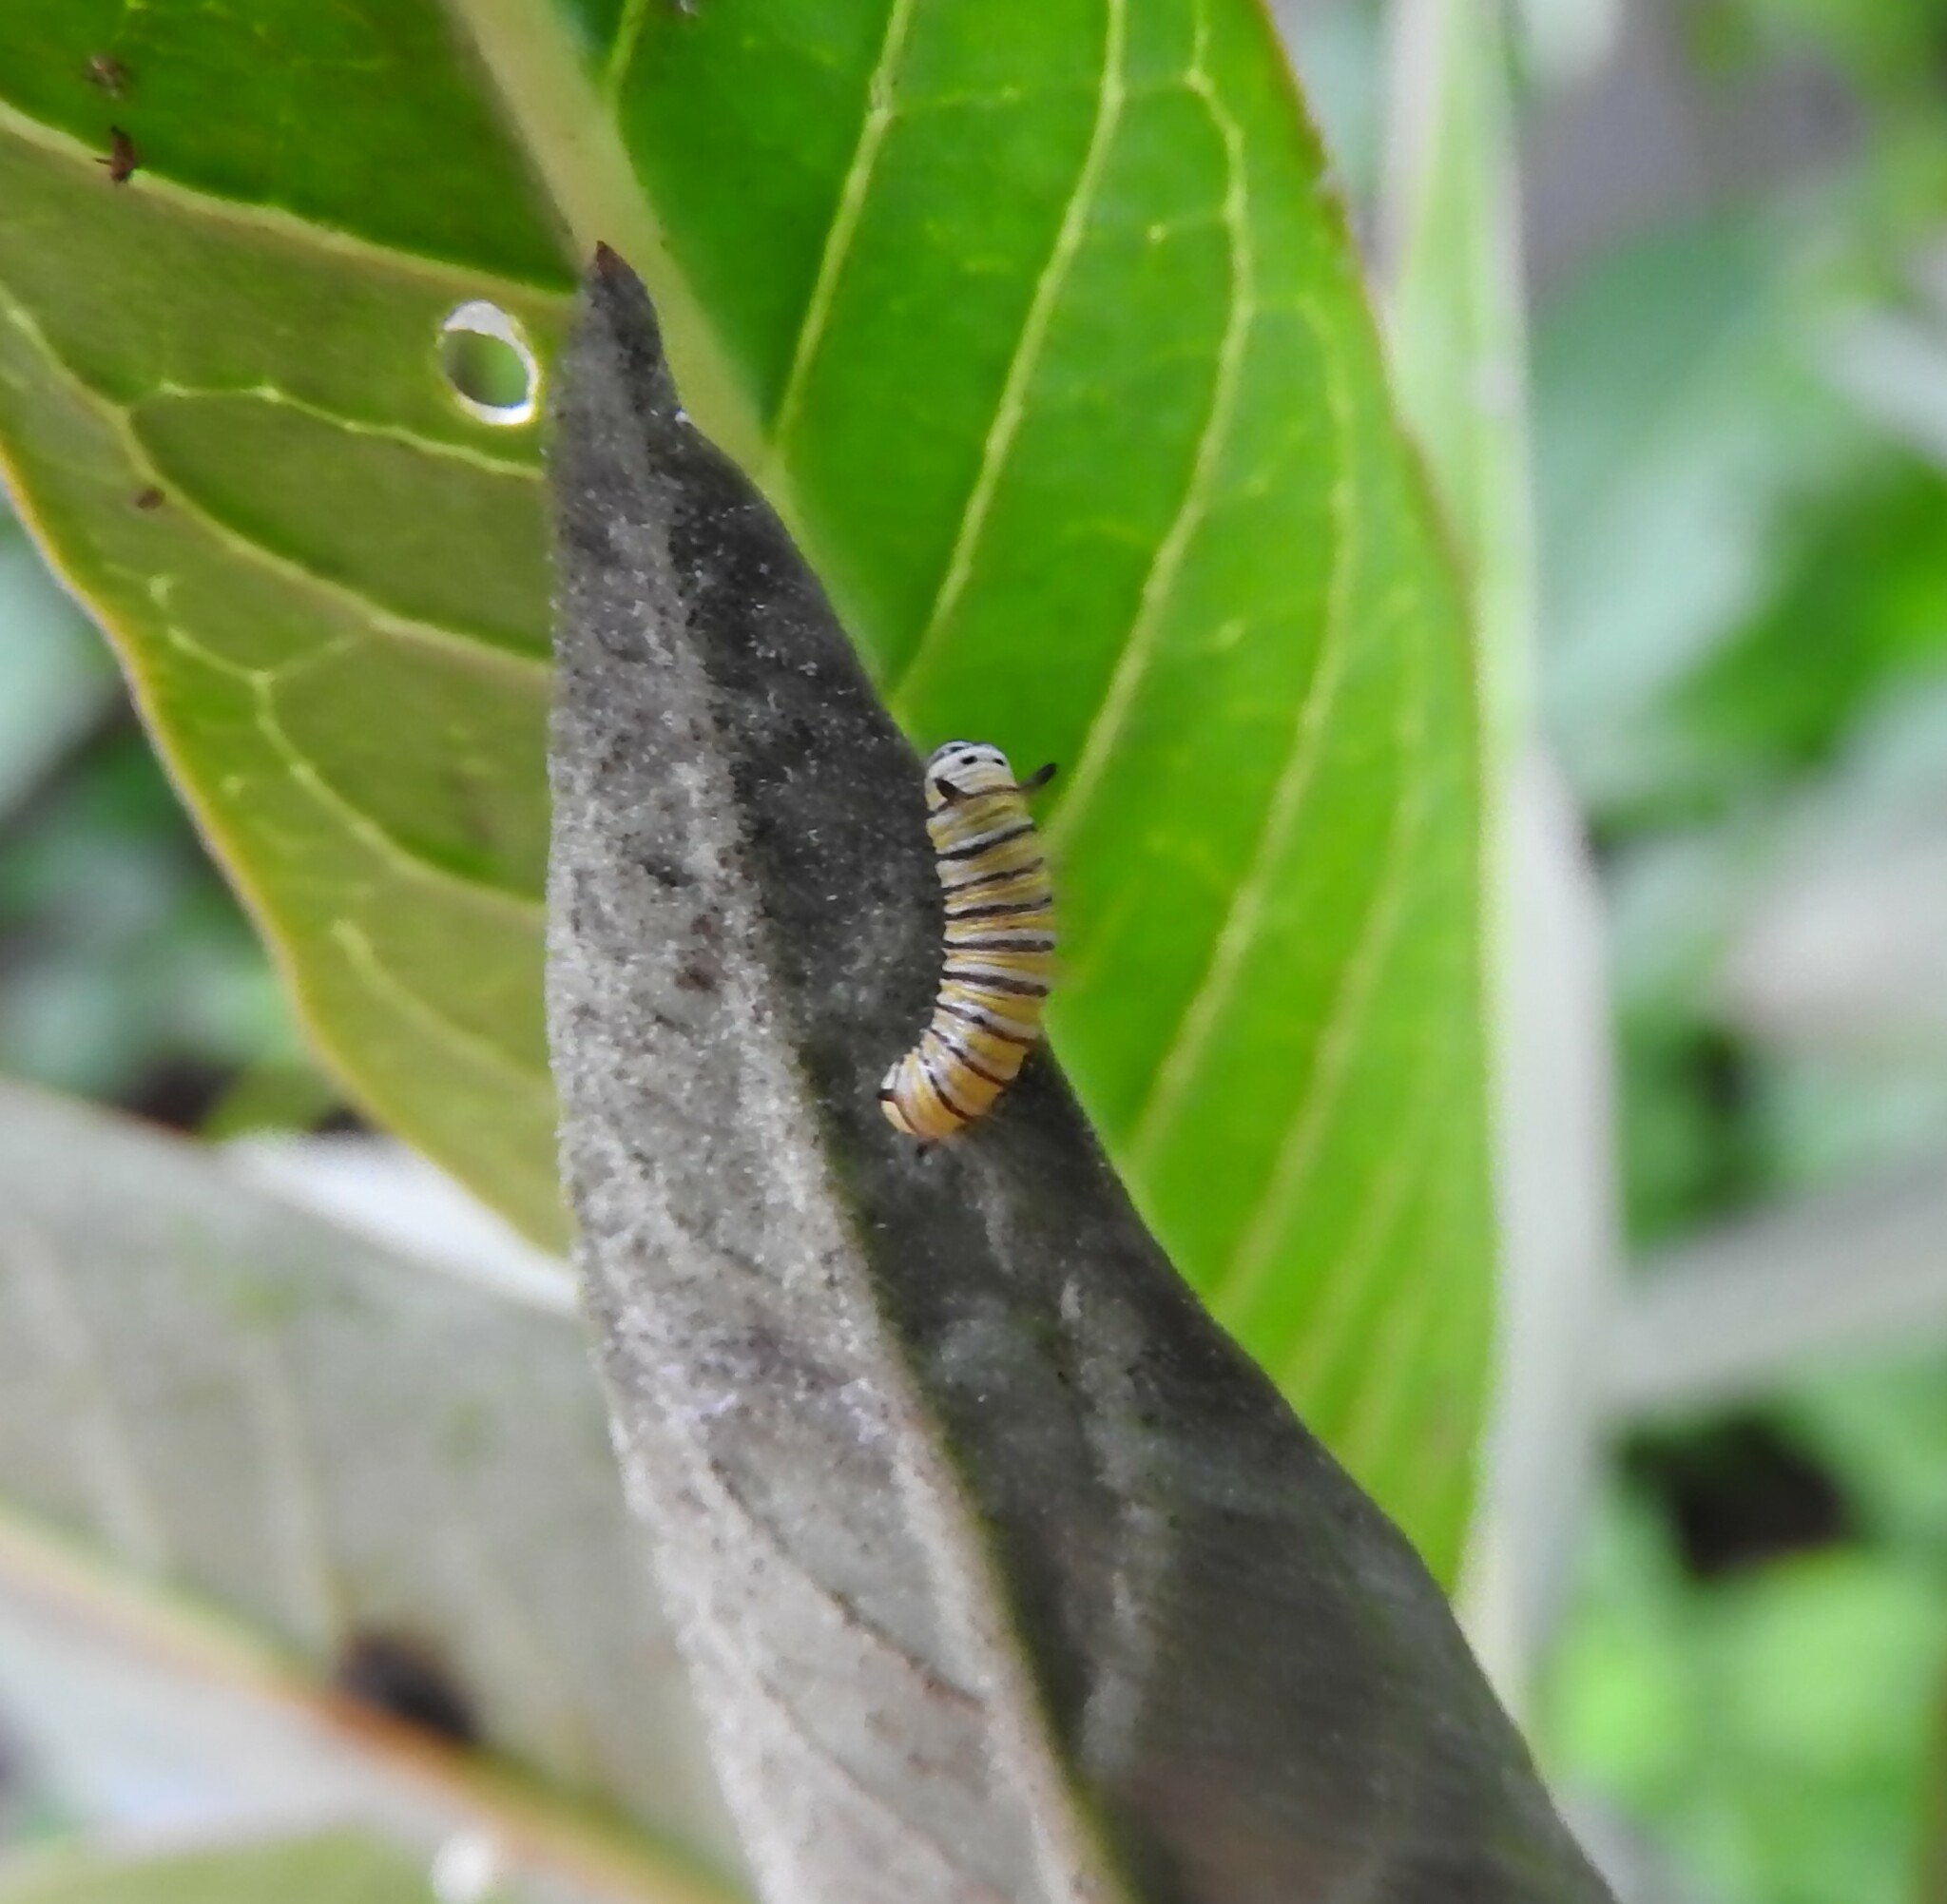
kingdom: Animalia
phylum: Arthropoda
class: Insecta
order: Lepidoptera
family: Nymphalidae
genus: Danaus
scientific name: Danaus plexippus
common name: Monarch
